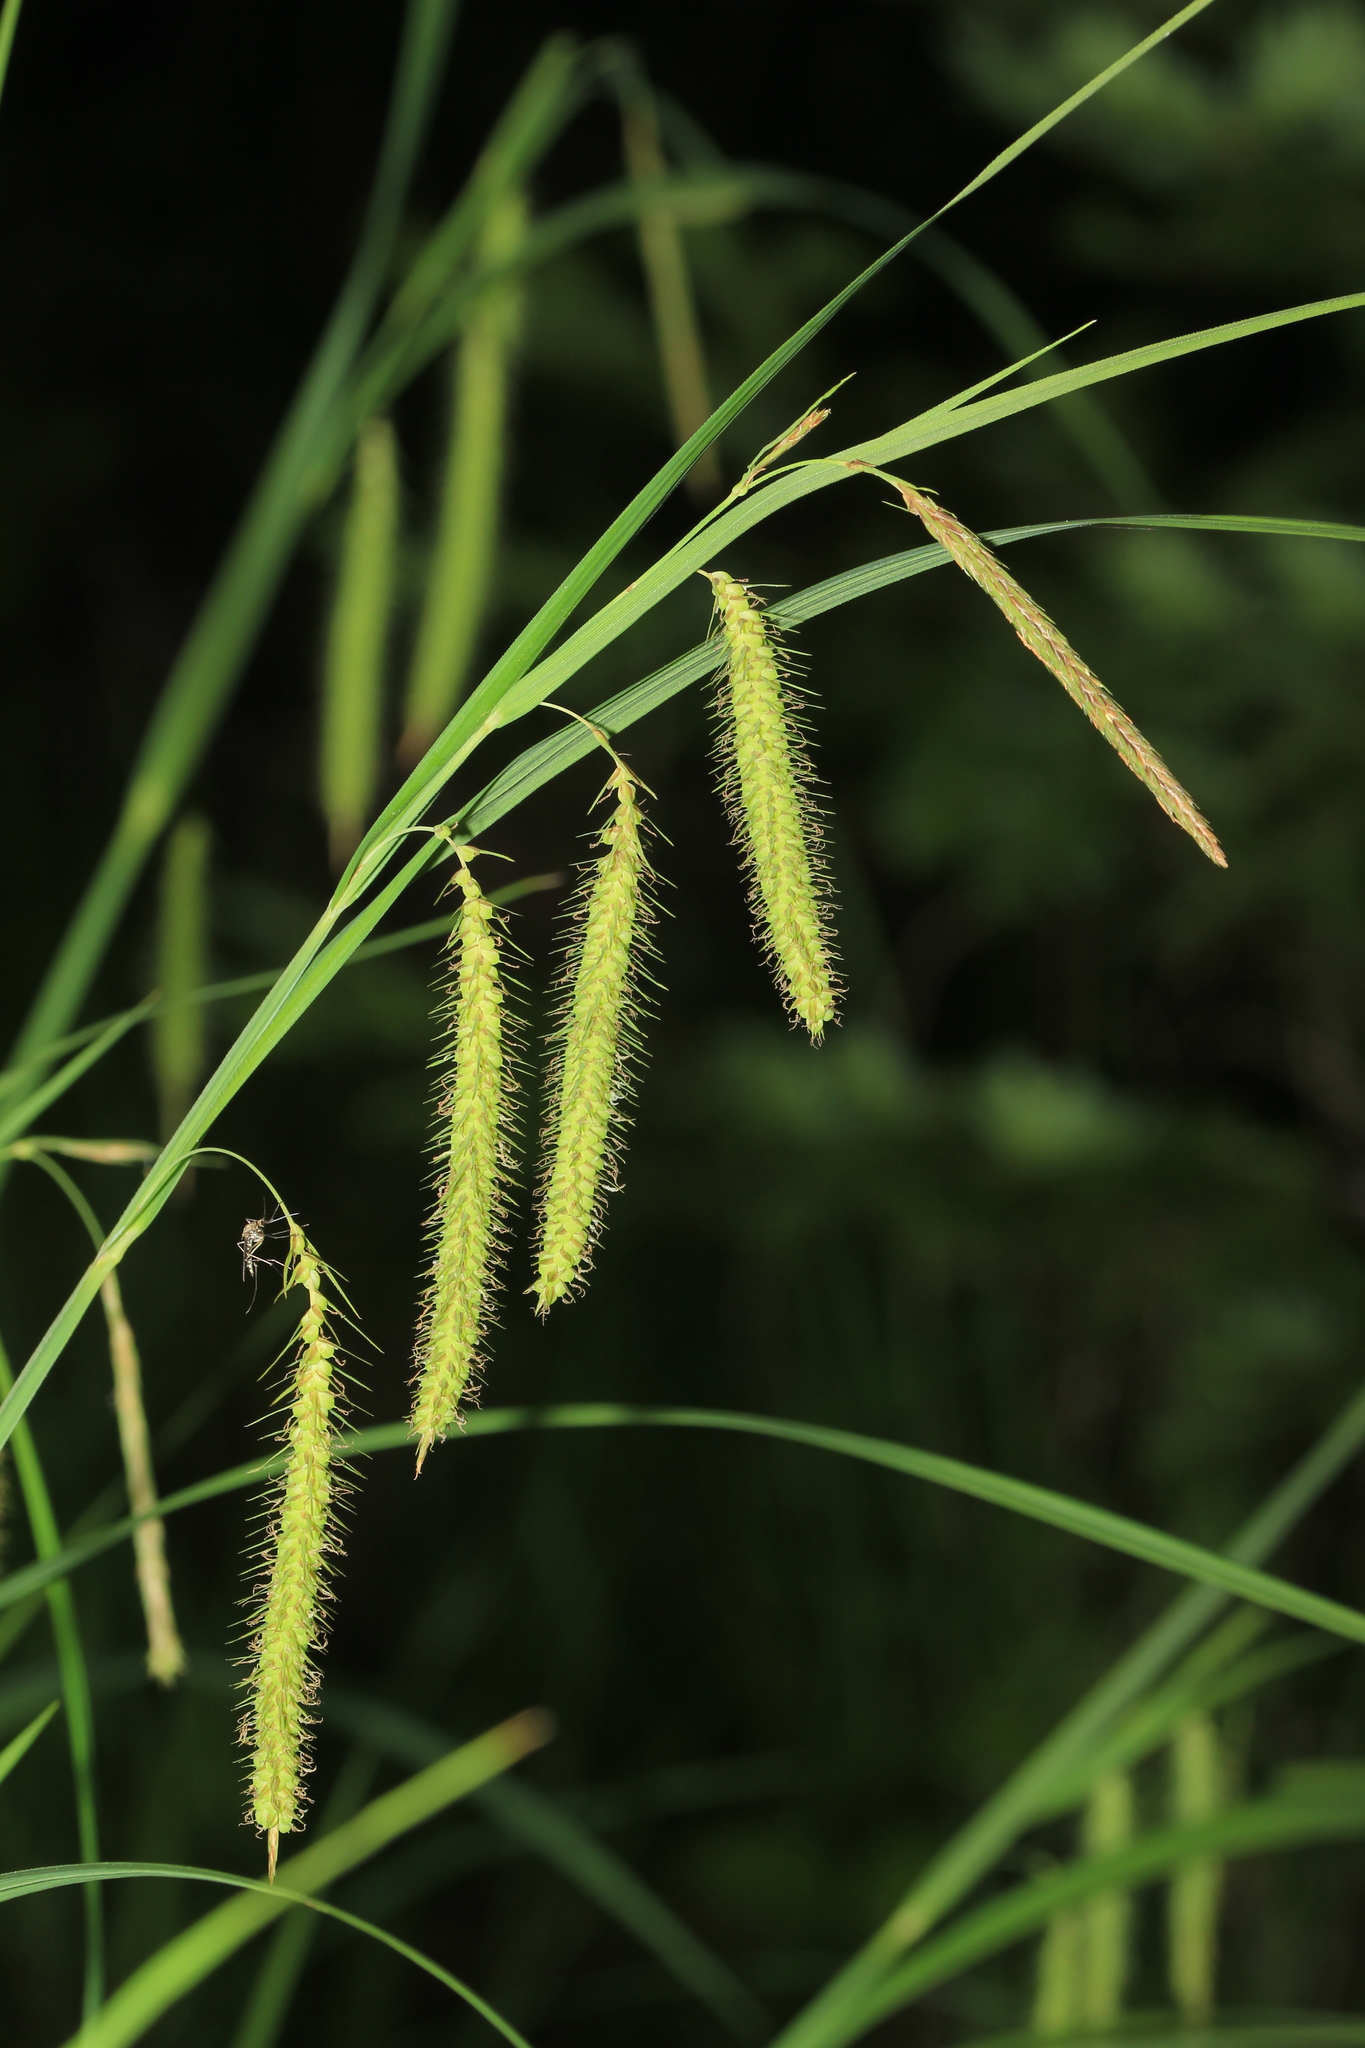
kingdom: Plantae
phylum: Tracheophyta
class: Liliopsida
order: Poales
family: Cyperaceae
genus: Carex
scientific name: Carex gynandra
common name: Nodding sedge
